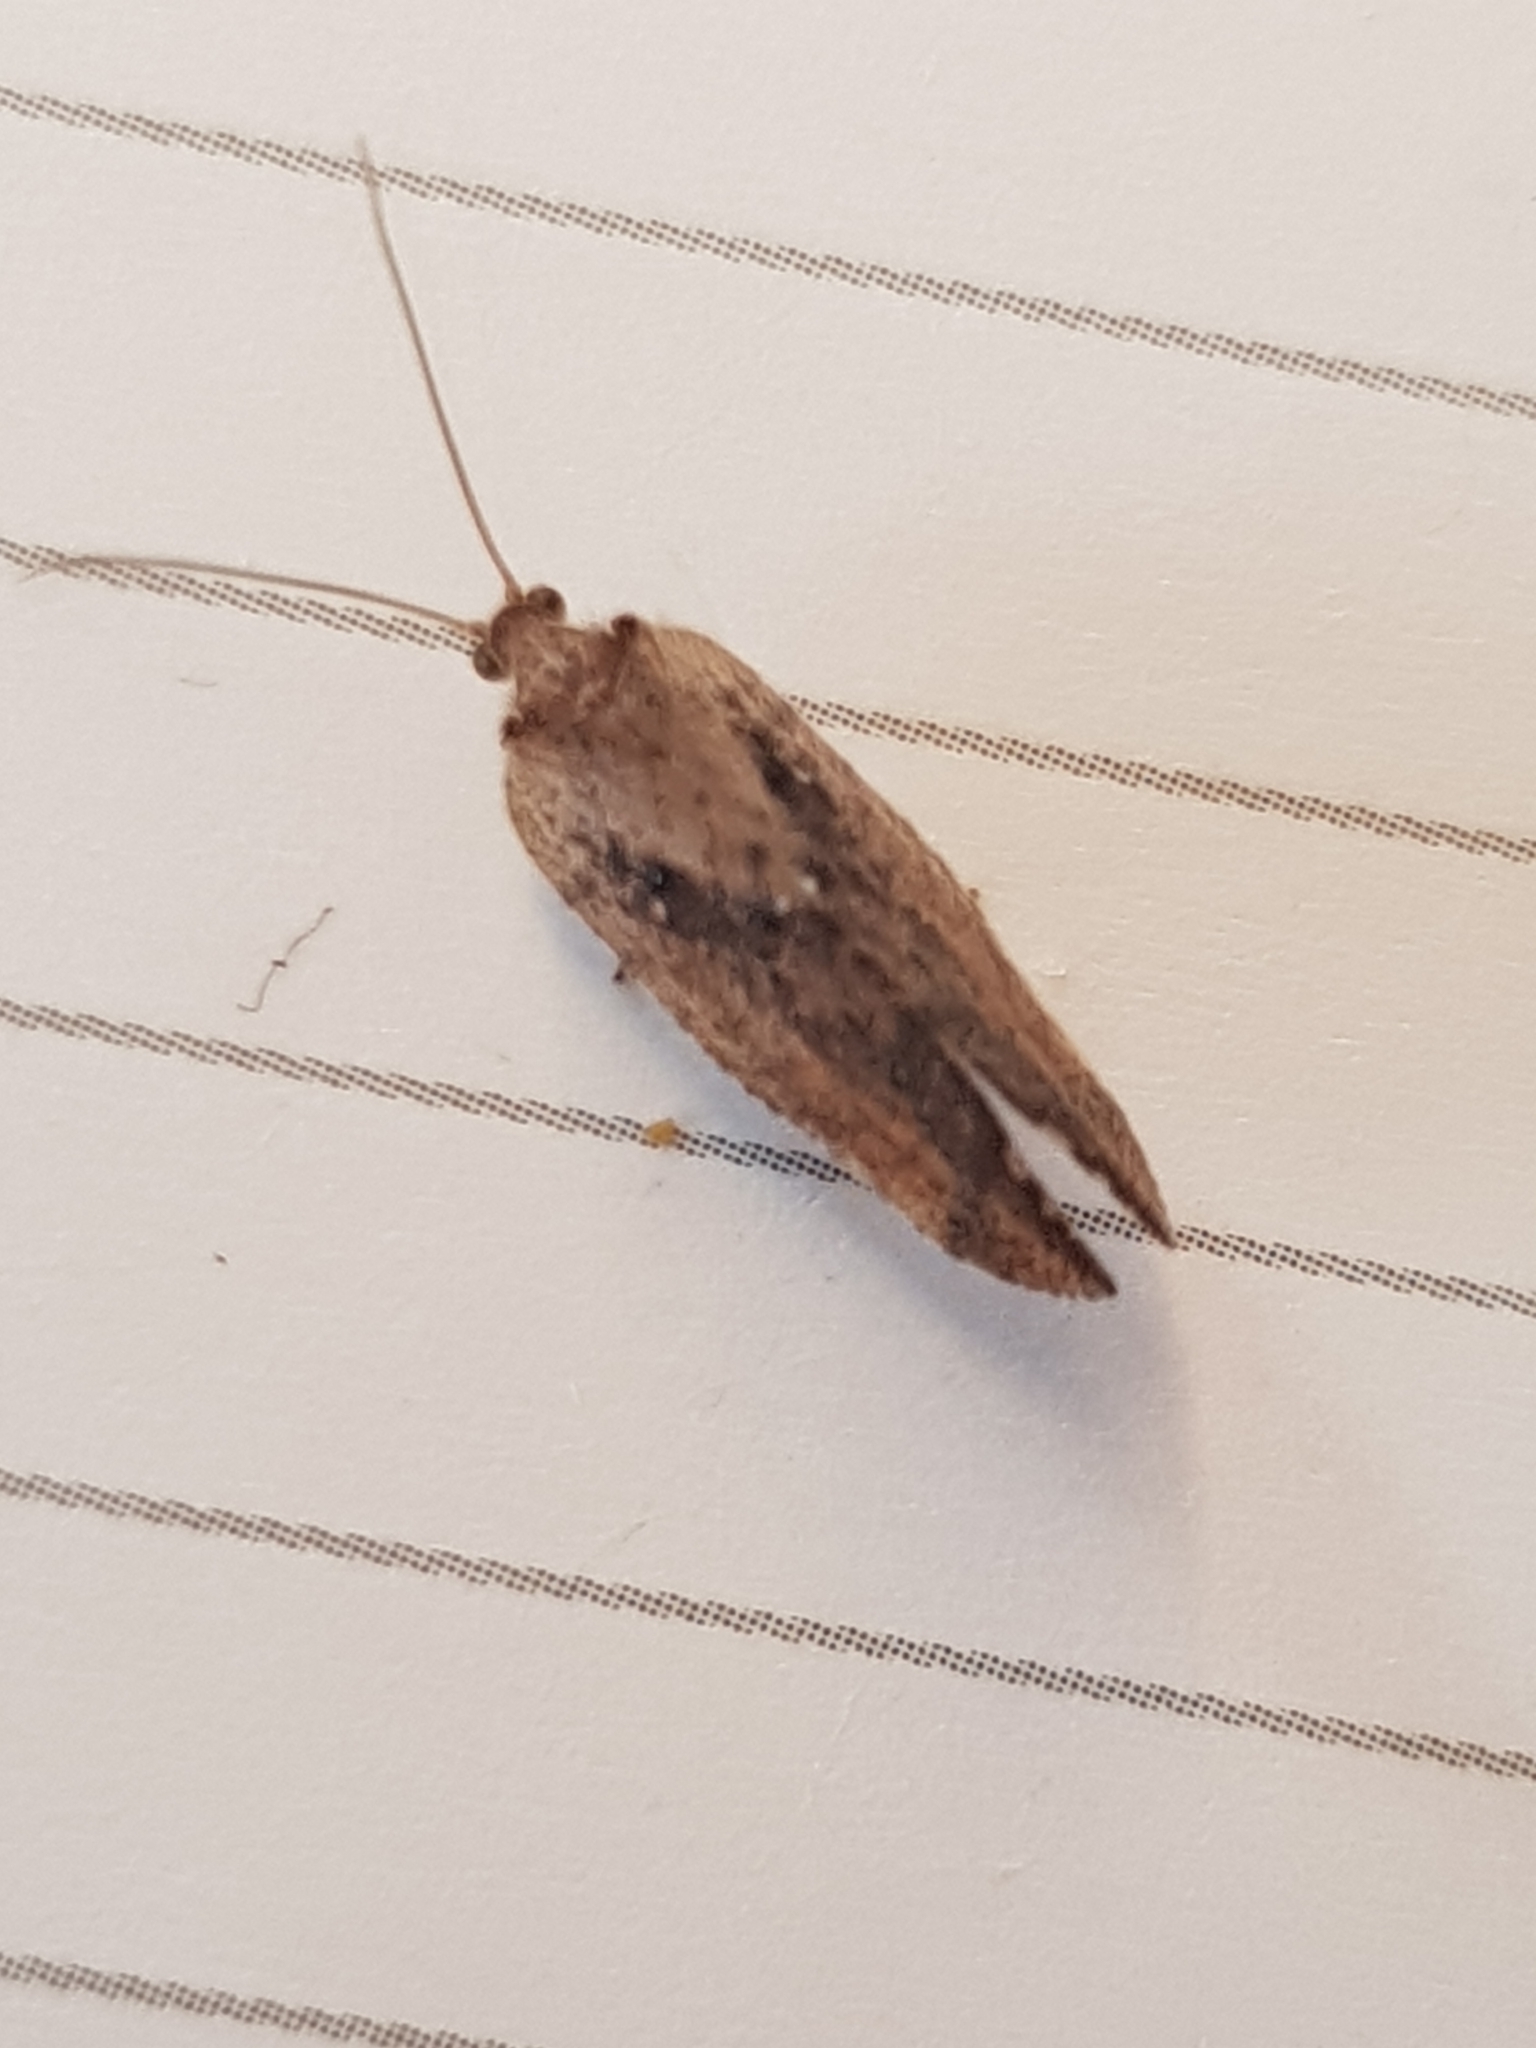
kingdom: Animalia
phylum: Arthropoda
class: Insecta
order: Neuroptera
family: Hemerobiidae
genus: Drepanacra
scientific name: Drepanacra binocula
